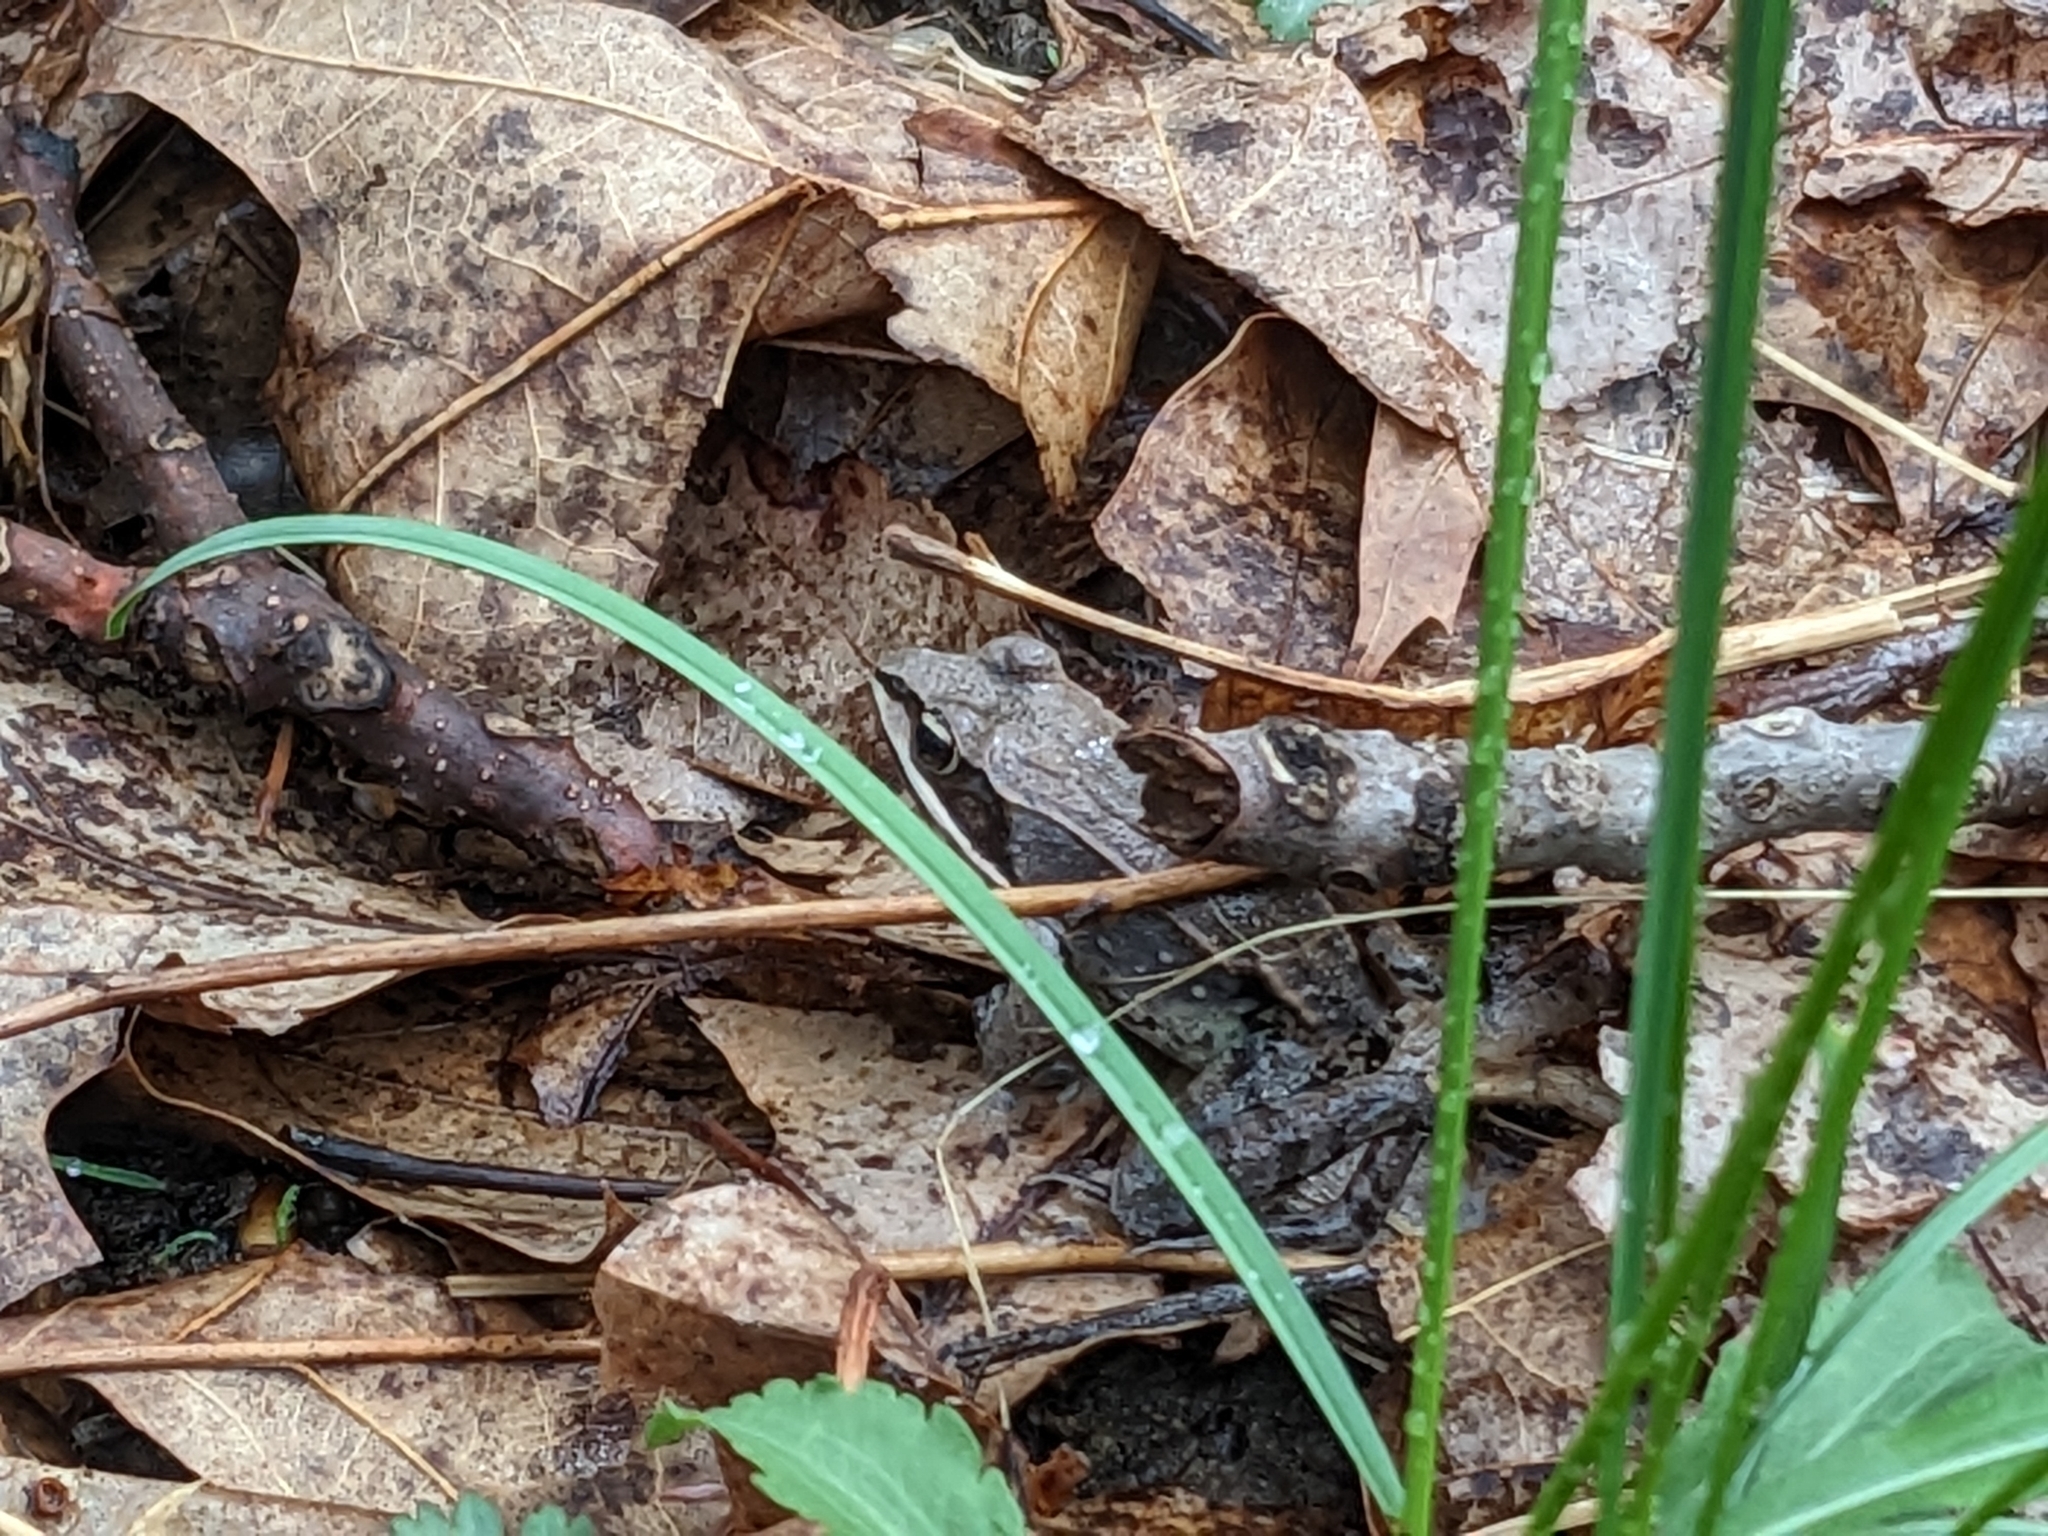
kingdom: Animalia
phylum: Chordata
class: Amphibia
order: Anura
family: Ranidae
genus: Lithobates
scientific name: Lithobates sylvaticus
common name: Wood frog
